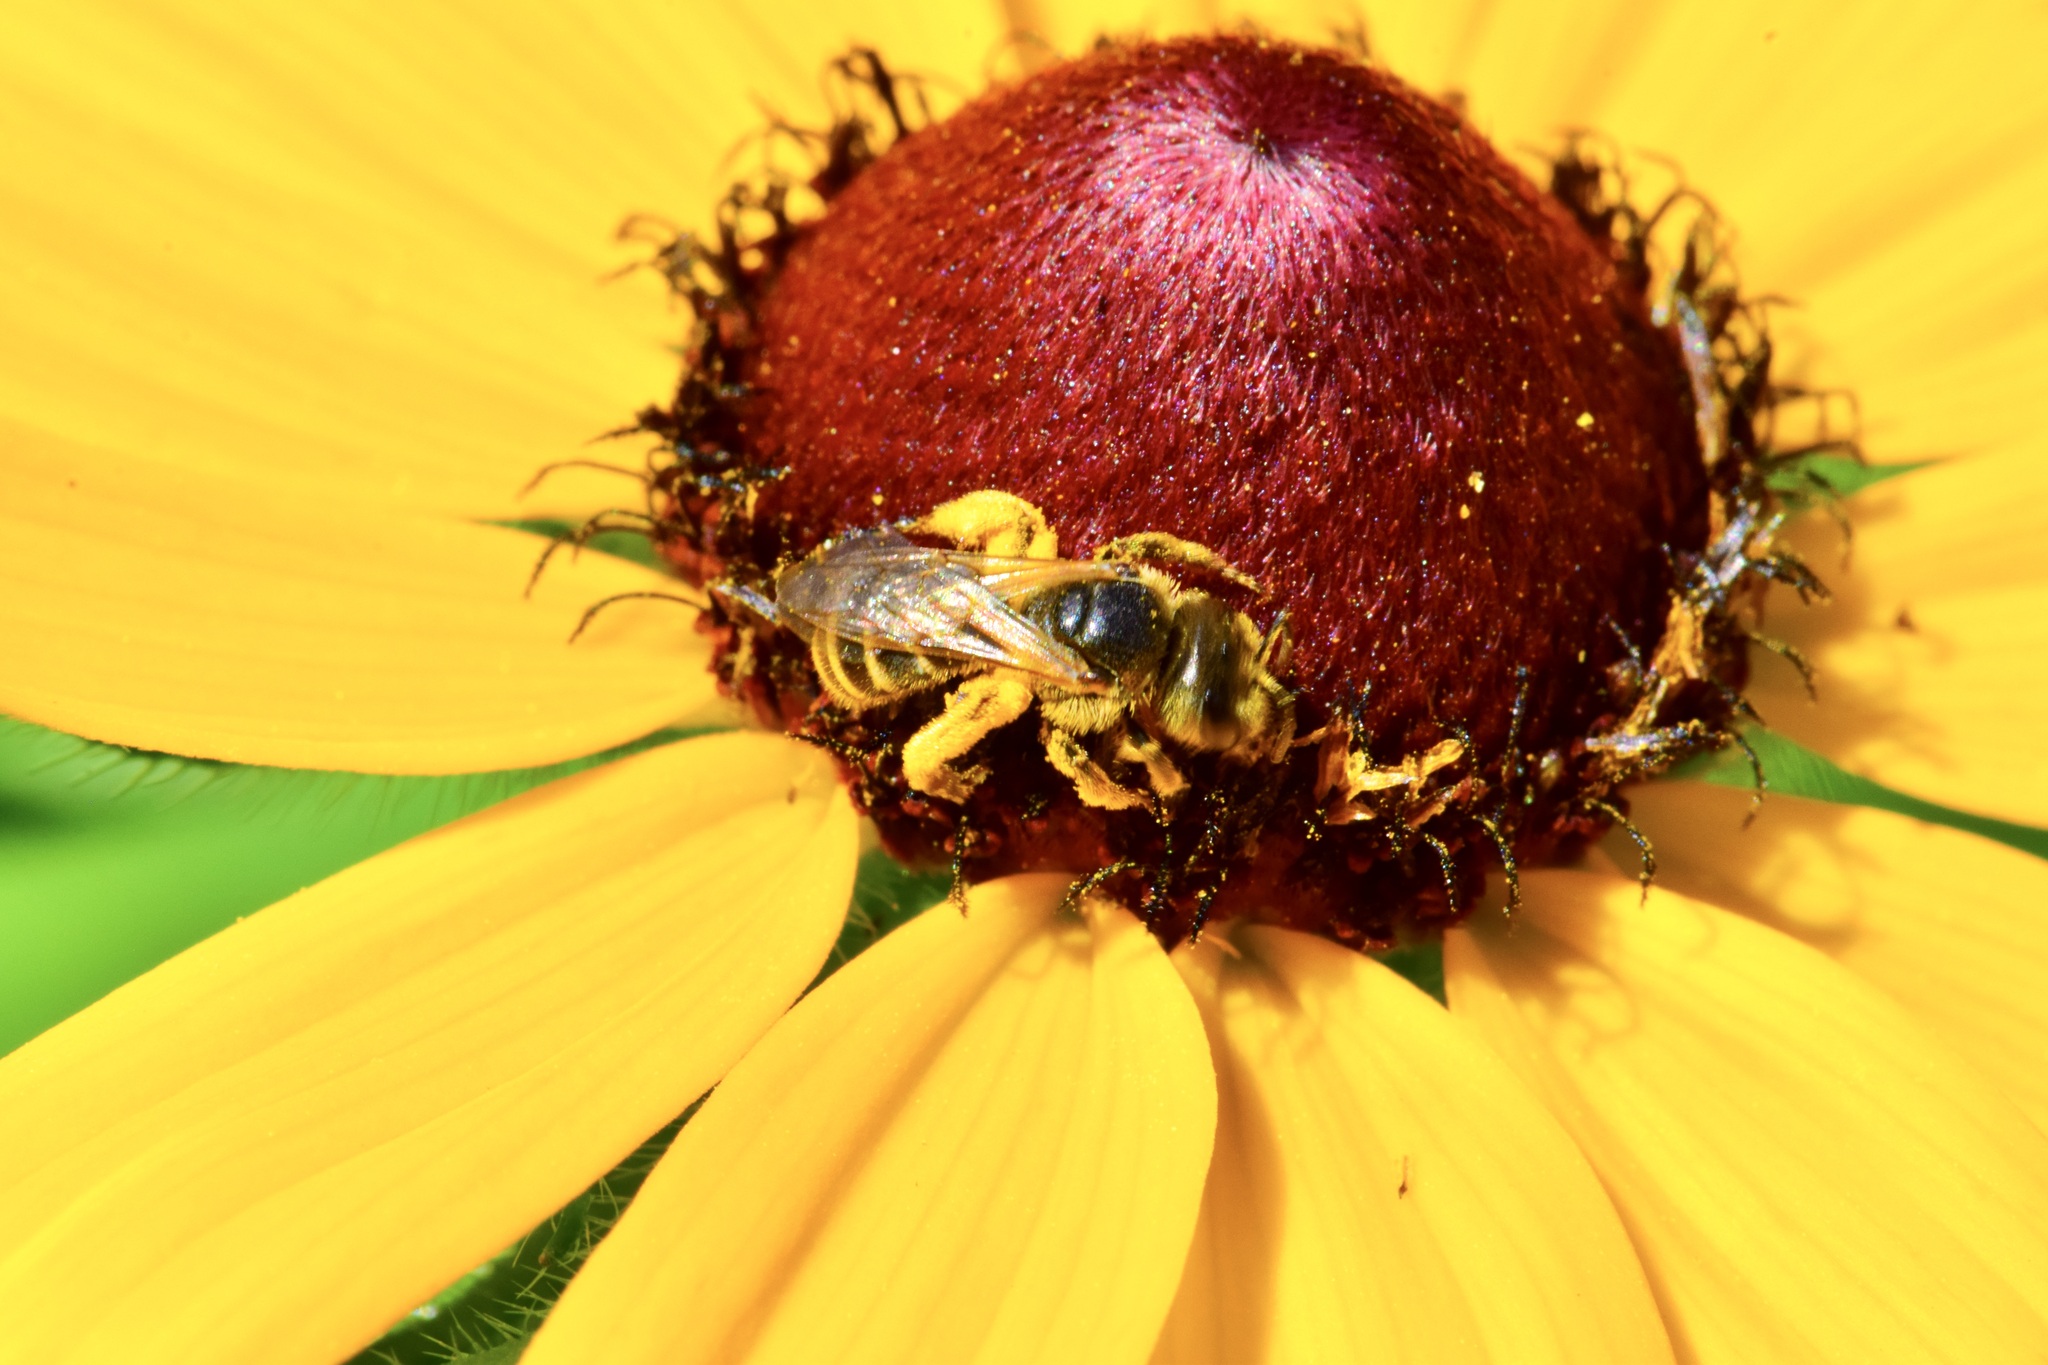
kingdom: Animalia
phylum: Arthropoda
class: Insecta
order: Hymenoptera
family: Halictidae
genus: Halictus
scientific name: Halictus ligatus
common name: Ligated furrow bee
